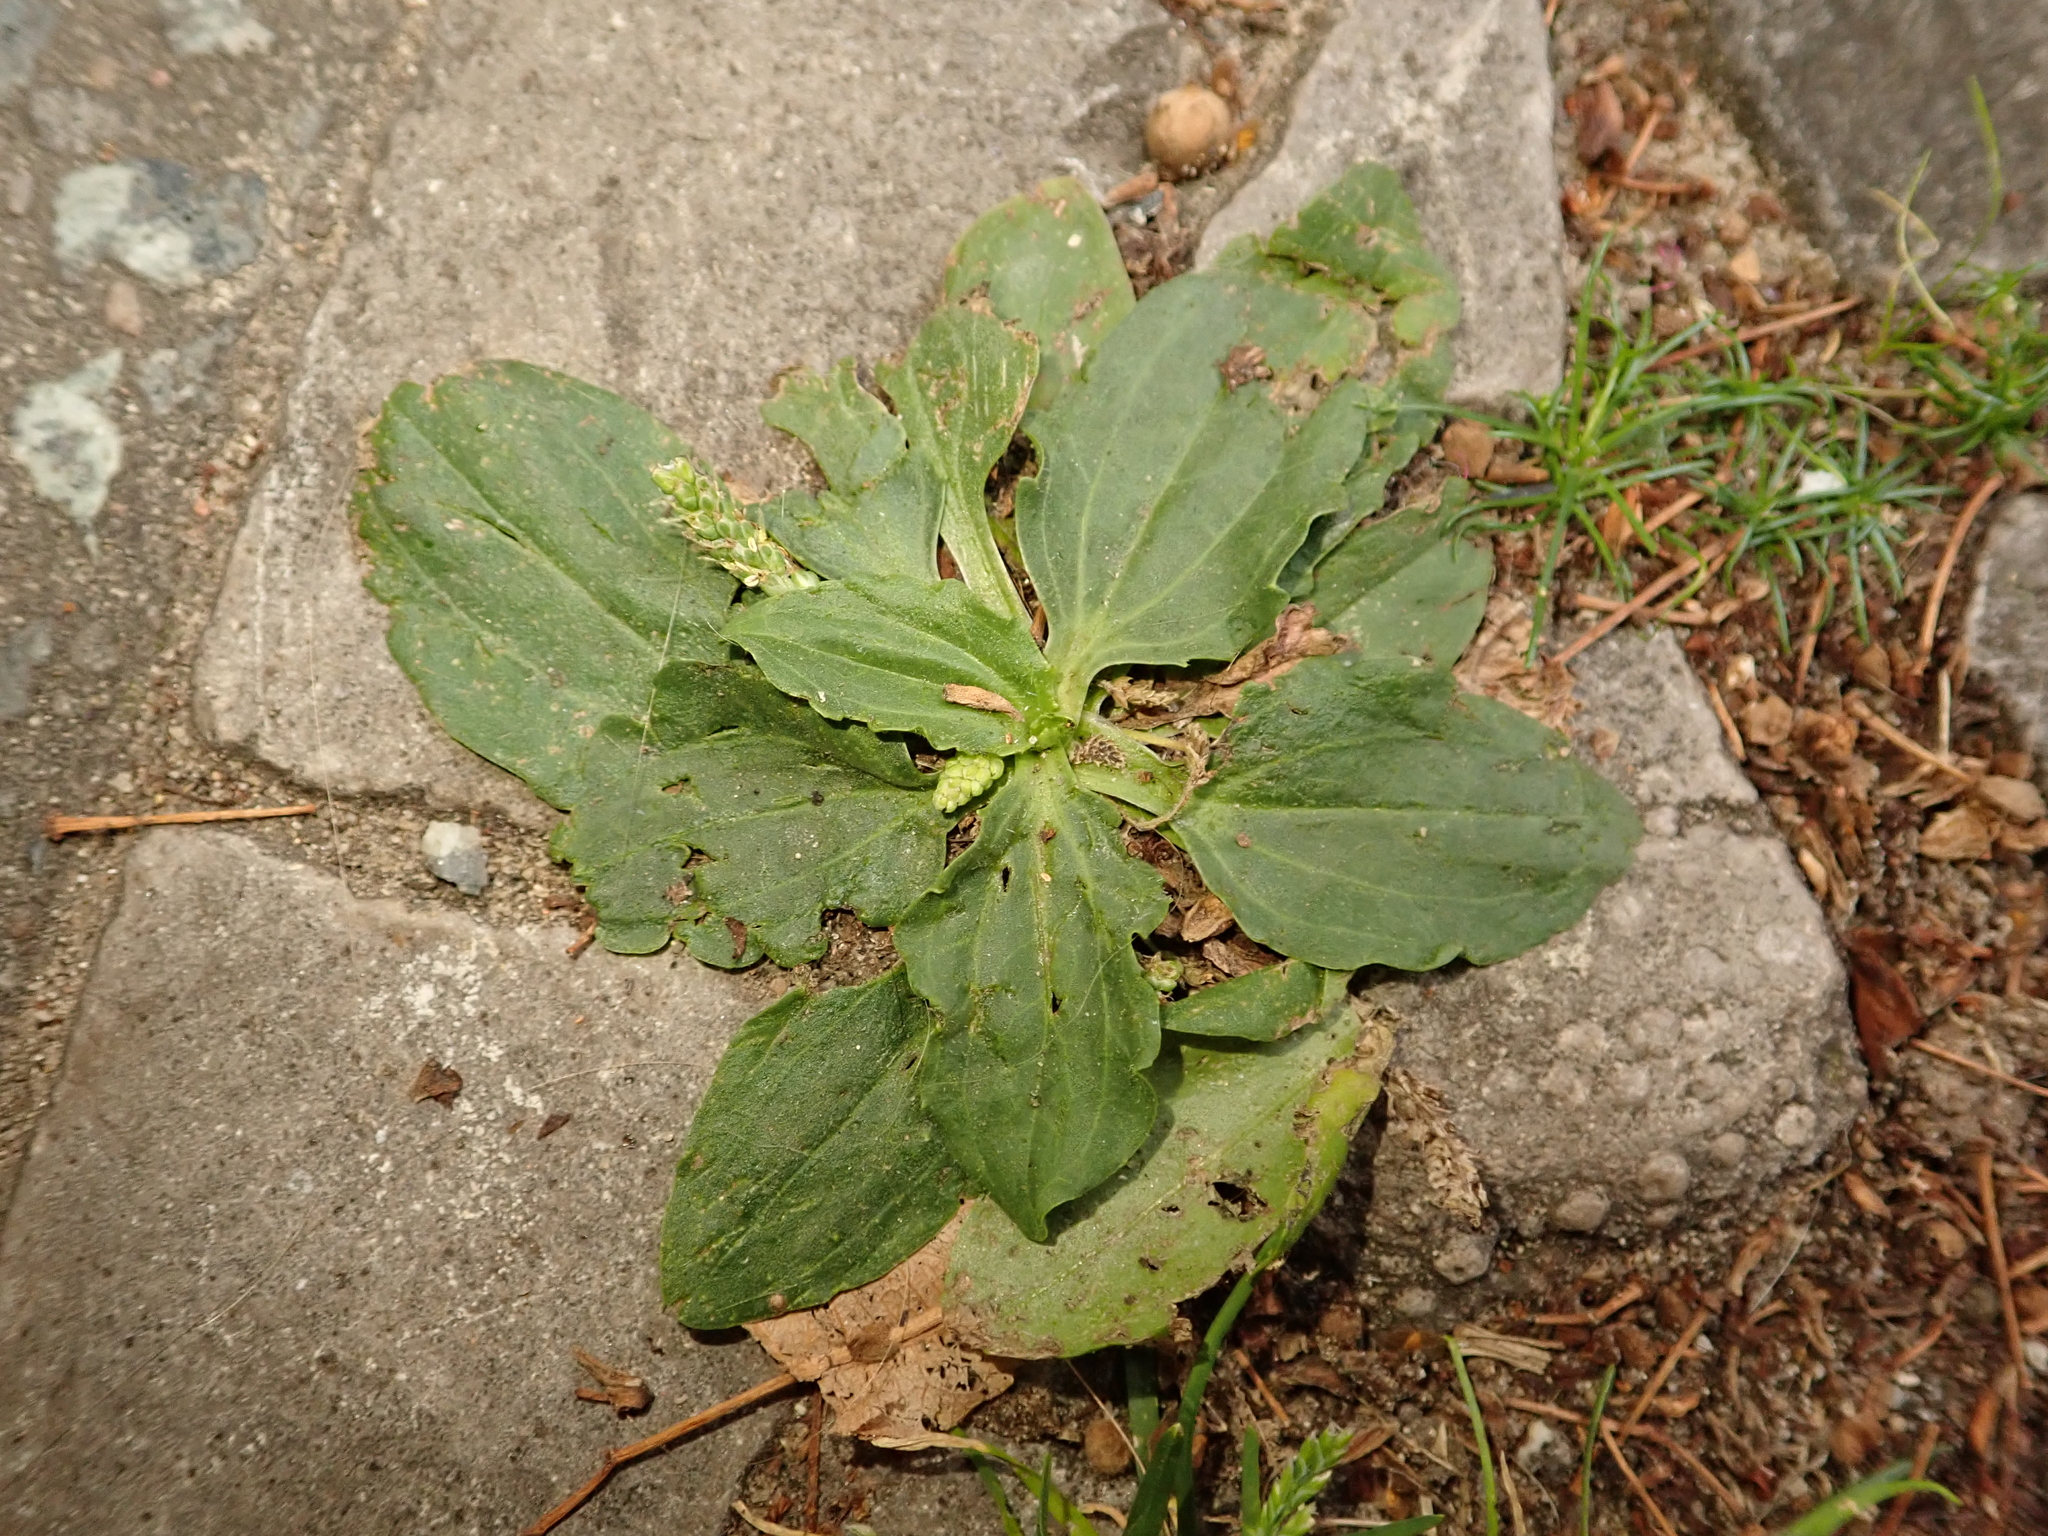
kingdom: Plantae
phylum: Tracheophyta
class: Magnoliopsida
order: Lamiales
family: Plantaginaceae
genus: Plantago
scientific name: Plantago major
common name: Common plantain
